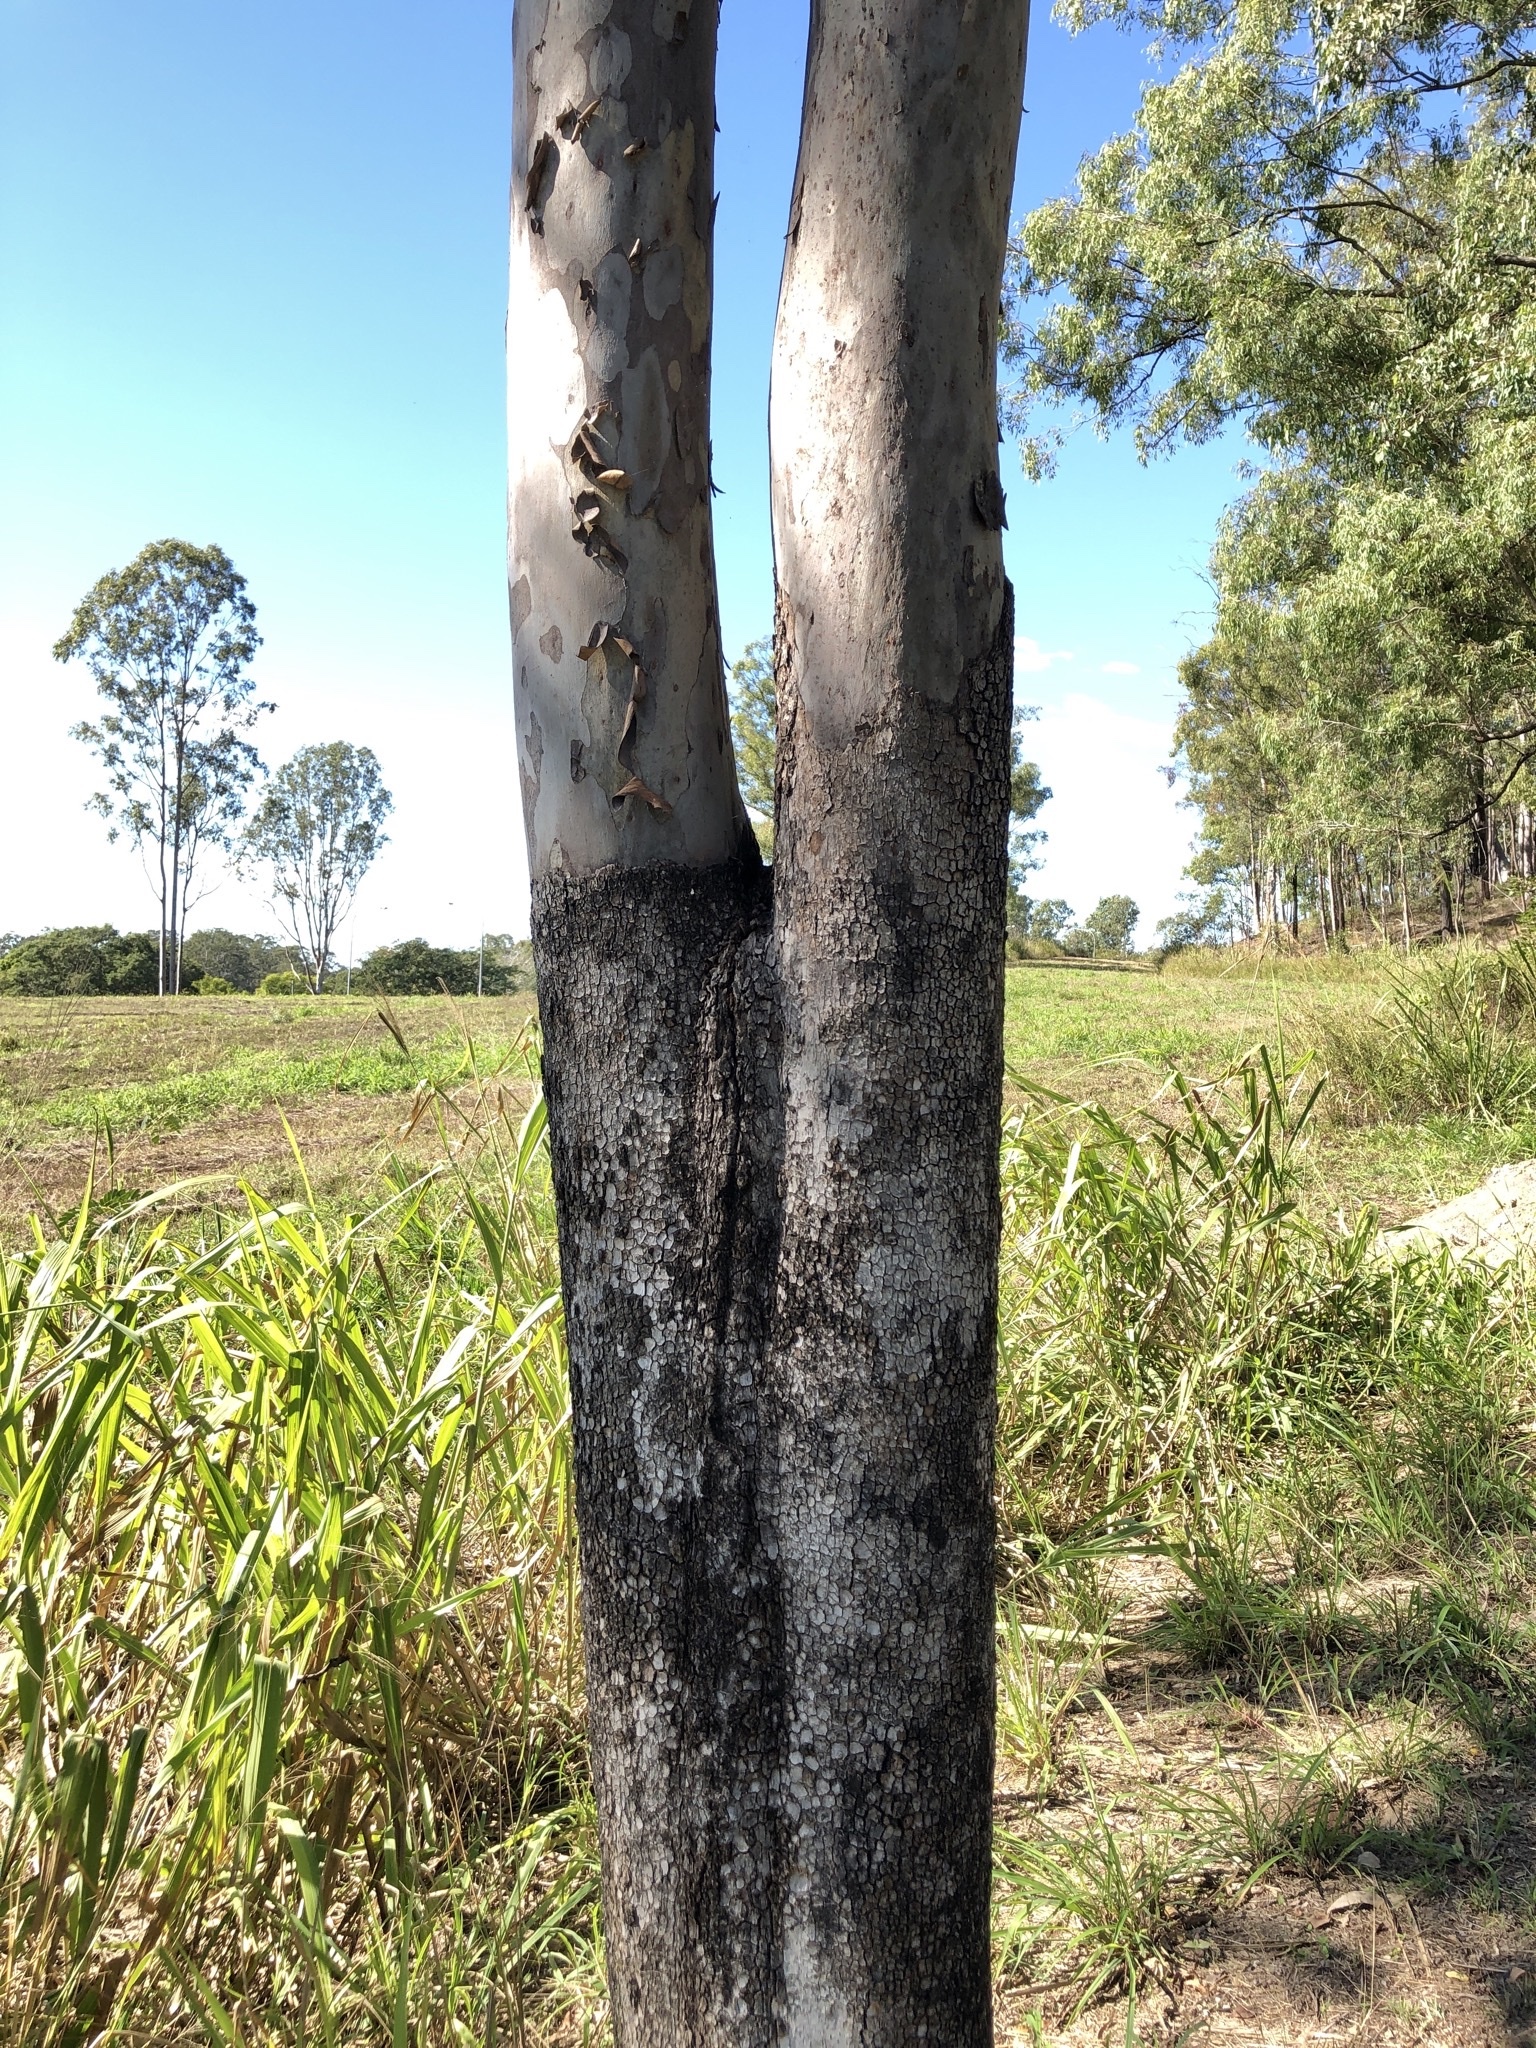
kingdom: Plantae
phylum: Tracheophyta
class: Magnoliopsida
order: Myrtales
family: Myrtaceae
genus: Corymbia
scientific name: Corymbia tessellaris
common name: Carbeen
